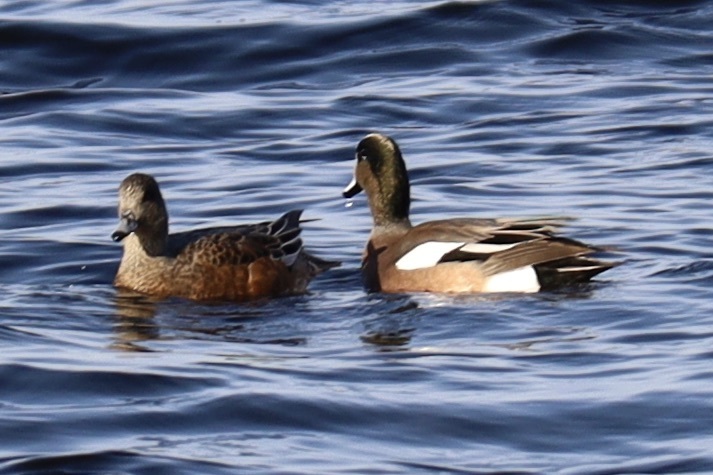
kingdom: Animalia
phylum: Chordata
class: Aves
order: Anseriformes
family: Anatidae
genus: Mareca
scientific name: Mareca americana
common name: American wigeon
